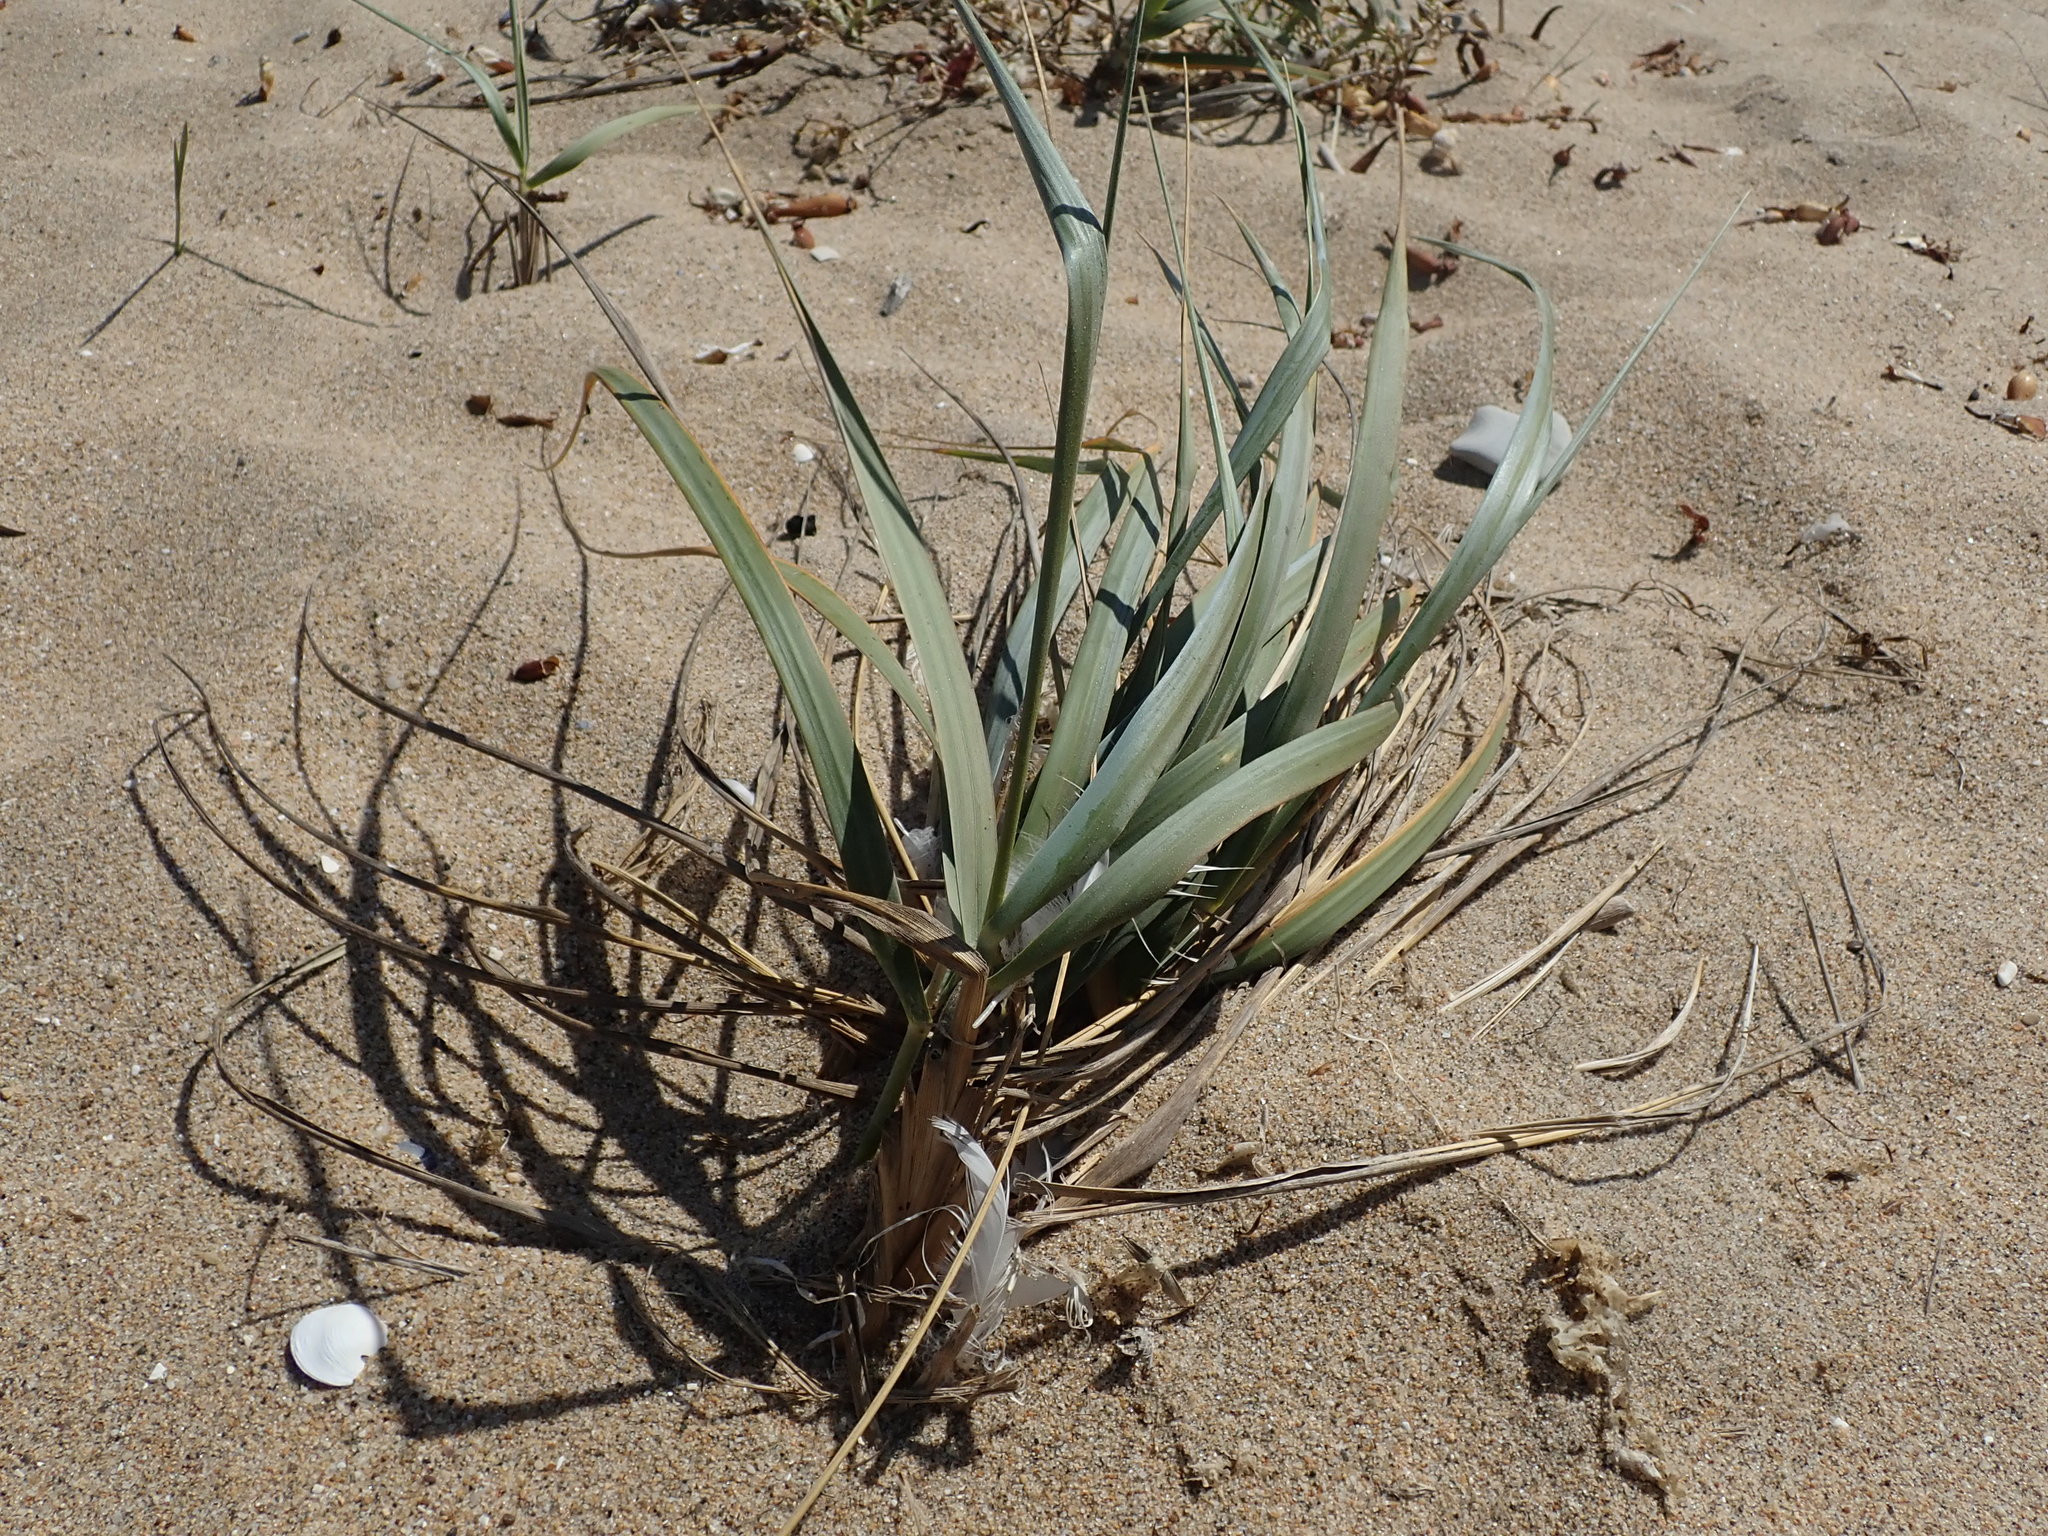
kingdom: Plantae
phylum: Tracheophyta
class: Liliopsida
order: Poales
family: Poaceae
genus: Leymus
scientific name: Leymus mollis
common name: American dune grass
